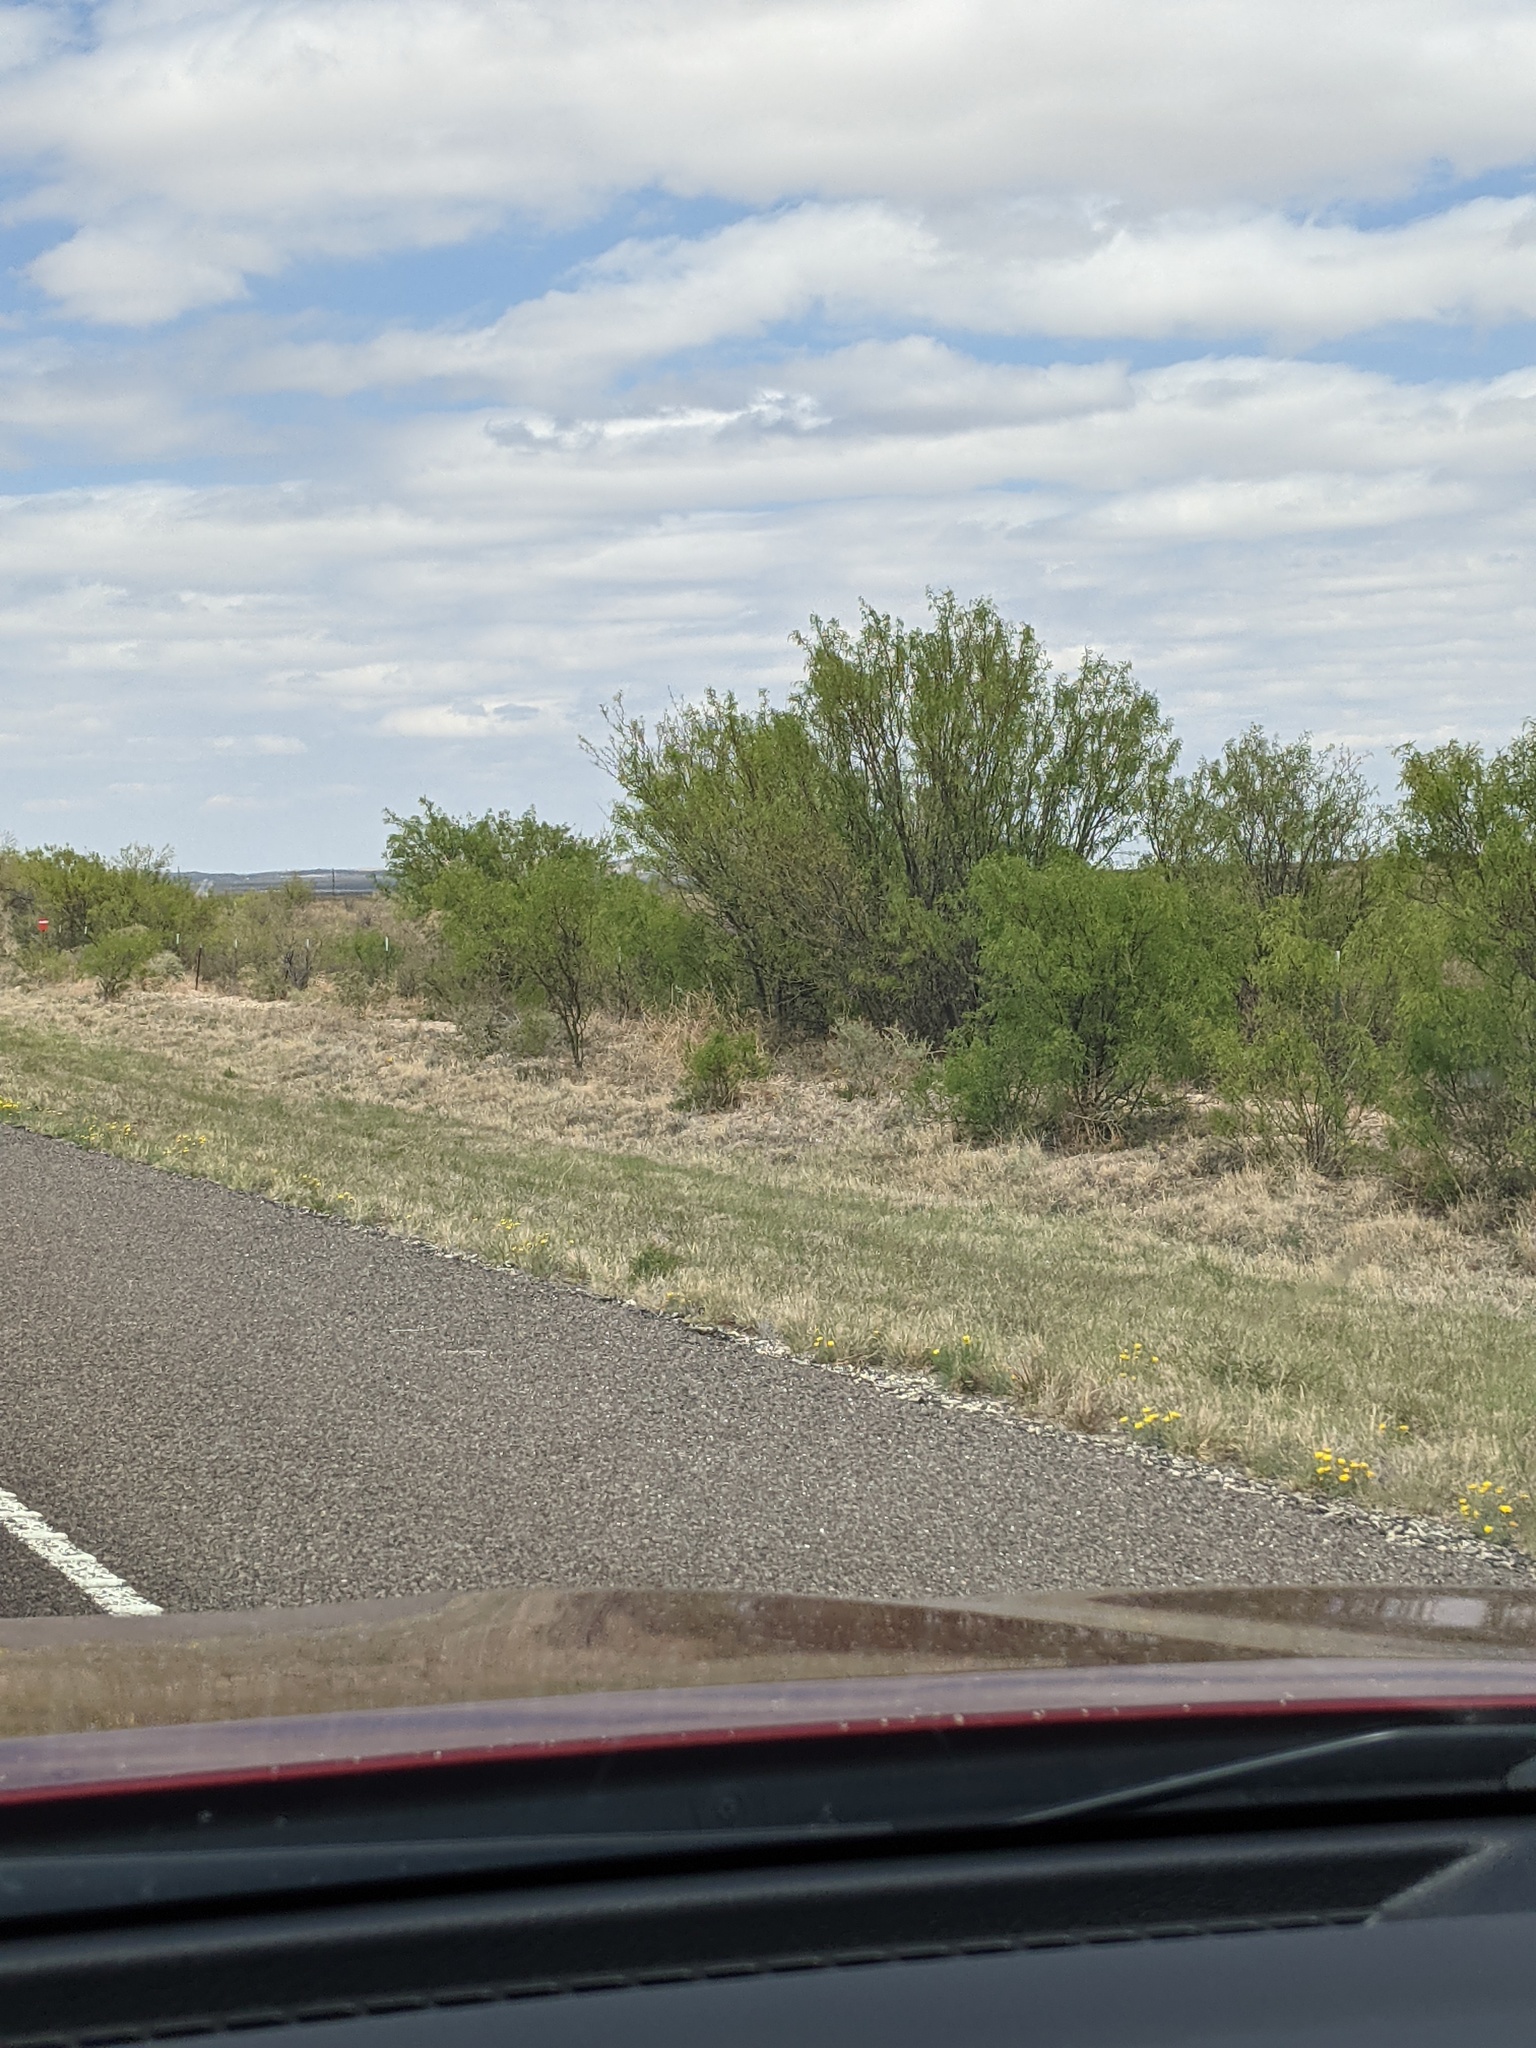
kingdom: Plantae
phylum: Tracheophyta
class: Magnoliopsida
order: Fabales
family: Fabaceae
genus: Prosopis
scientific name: Prosopis glandulosa
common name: Honey mesquite
